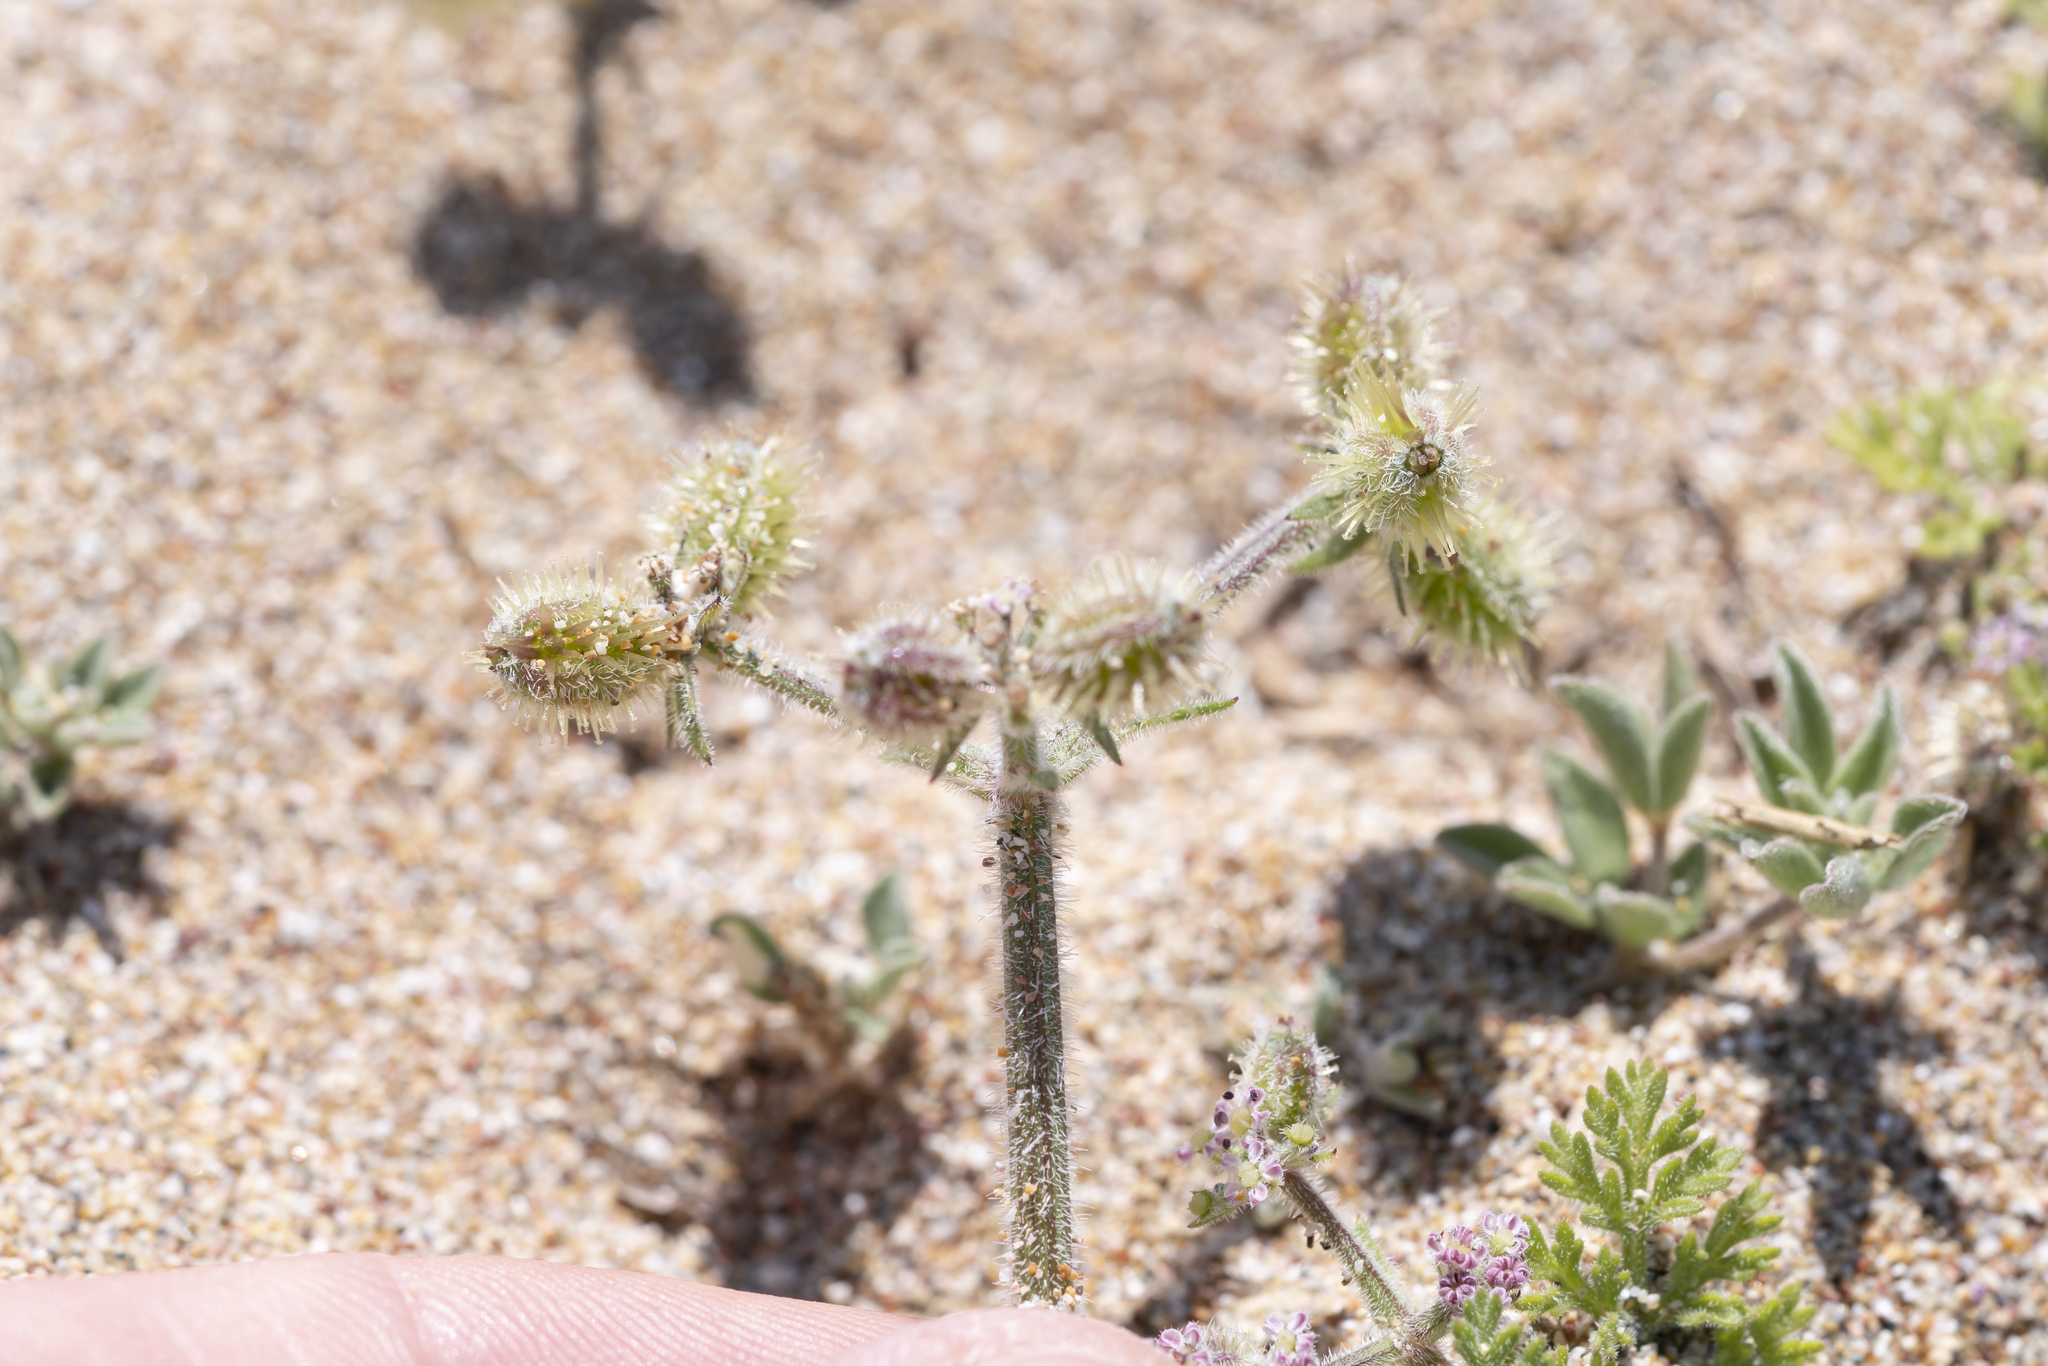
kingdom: Plantae
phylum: Tracheophyta
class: Magnoliopsida
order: Apiales
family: Apiaceae
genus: Daucus
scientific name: Daucus pumilus
